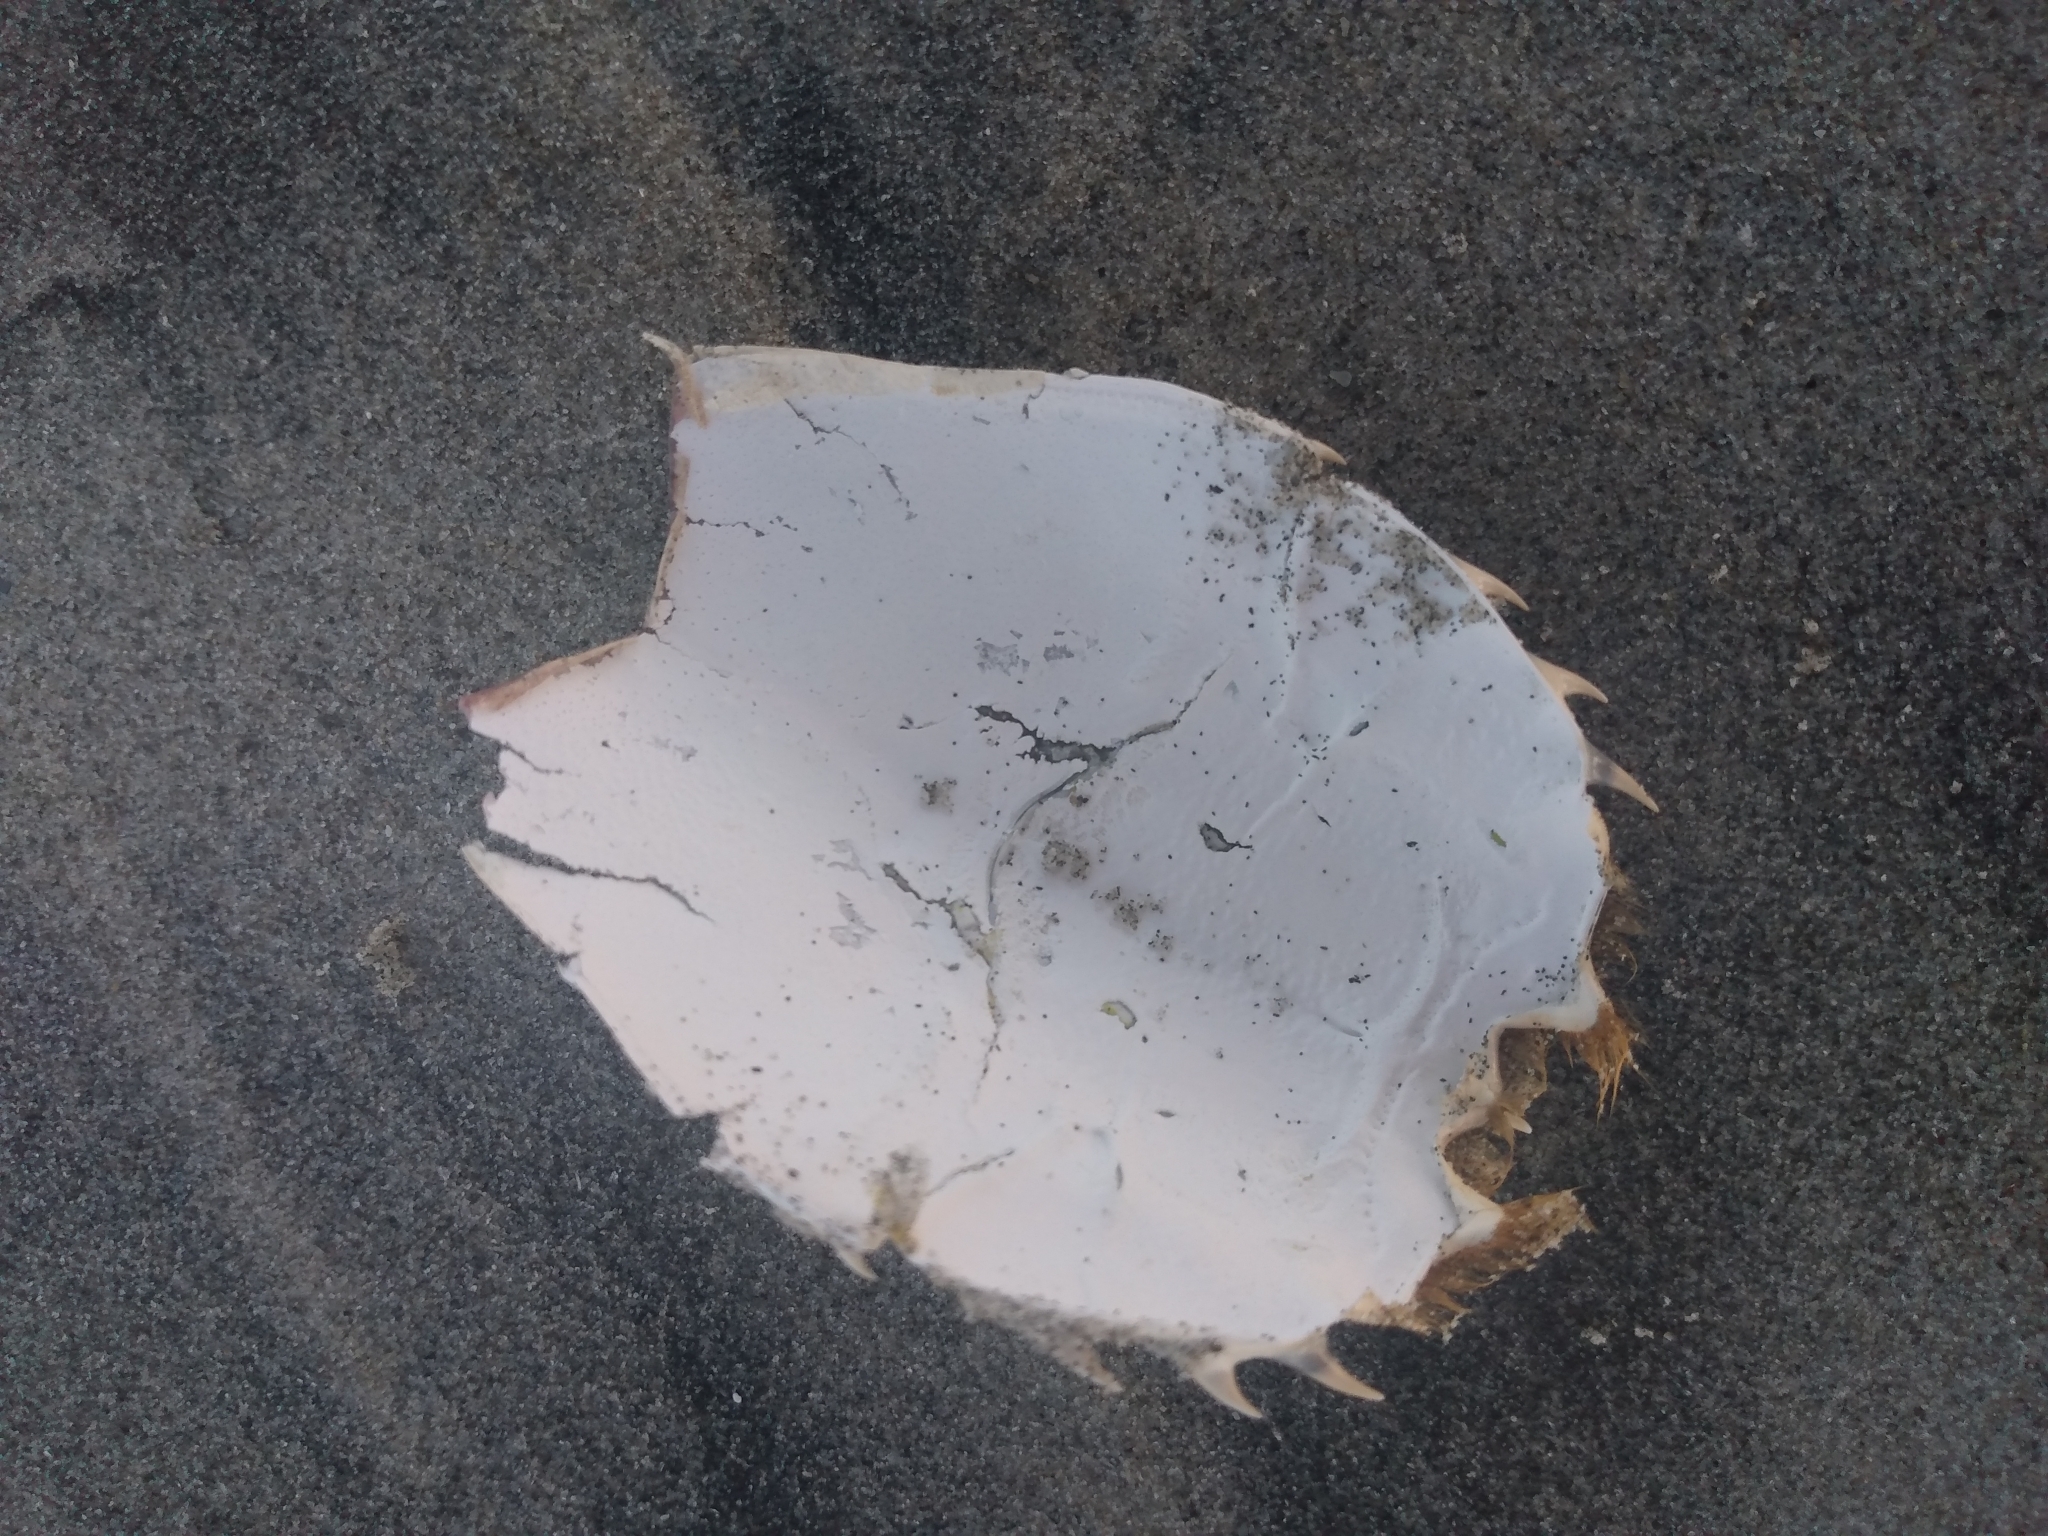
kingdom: Animalia
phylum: Arthropoda
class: Malacostraca
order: Decapoda
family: Blepharipodidae
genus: Blepharipoda
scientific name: Blepharipoda occidentalis
